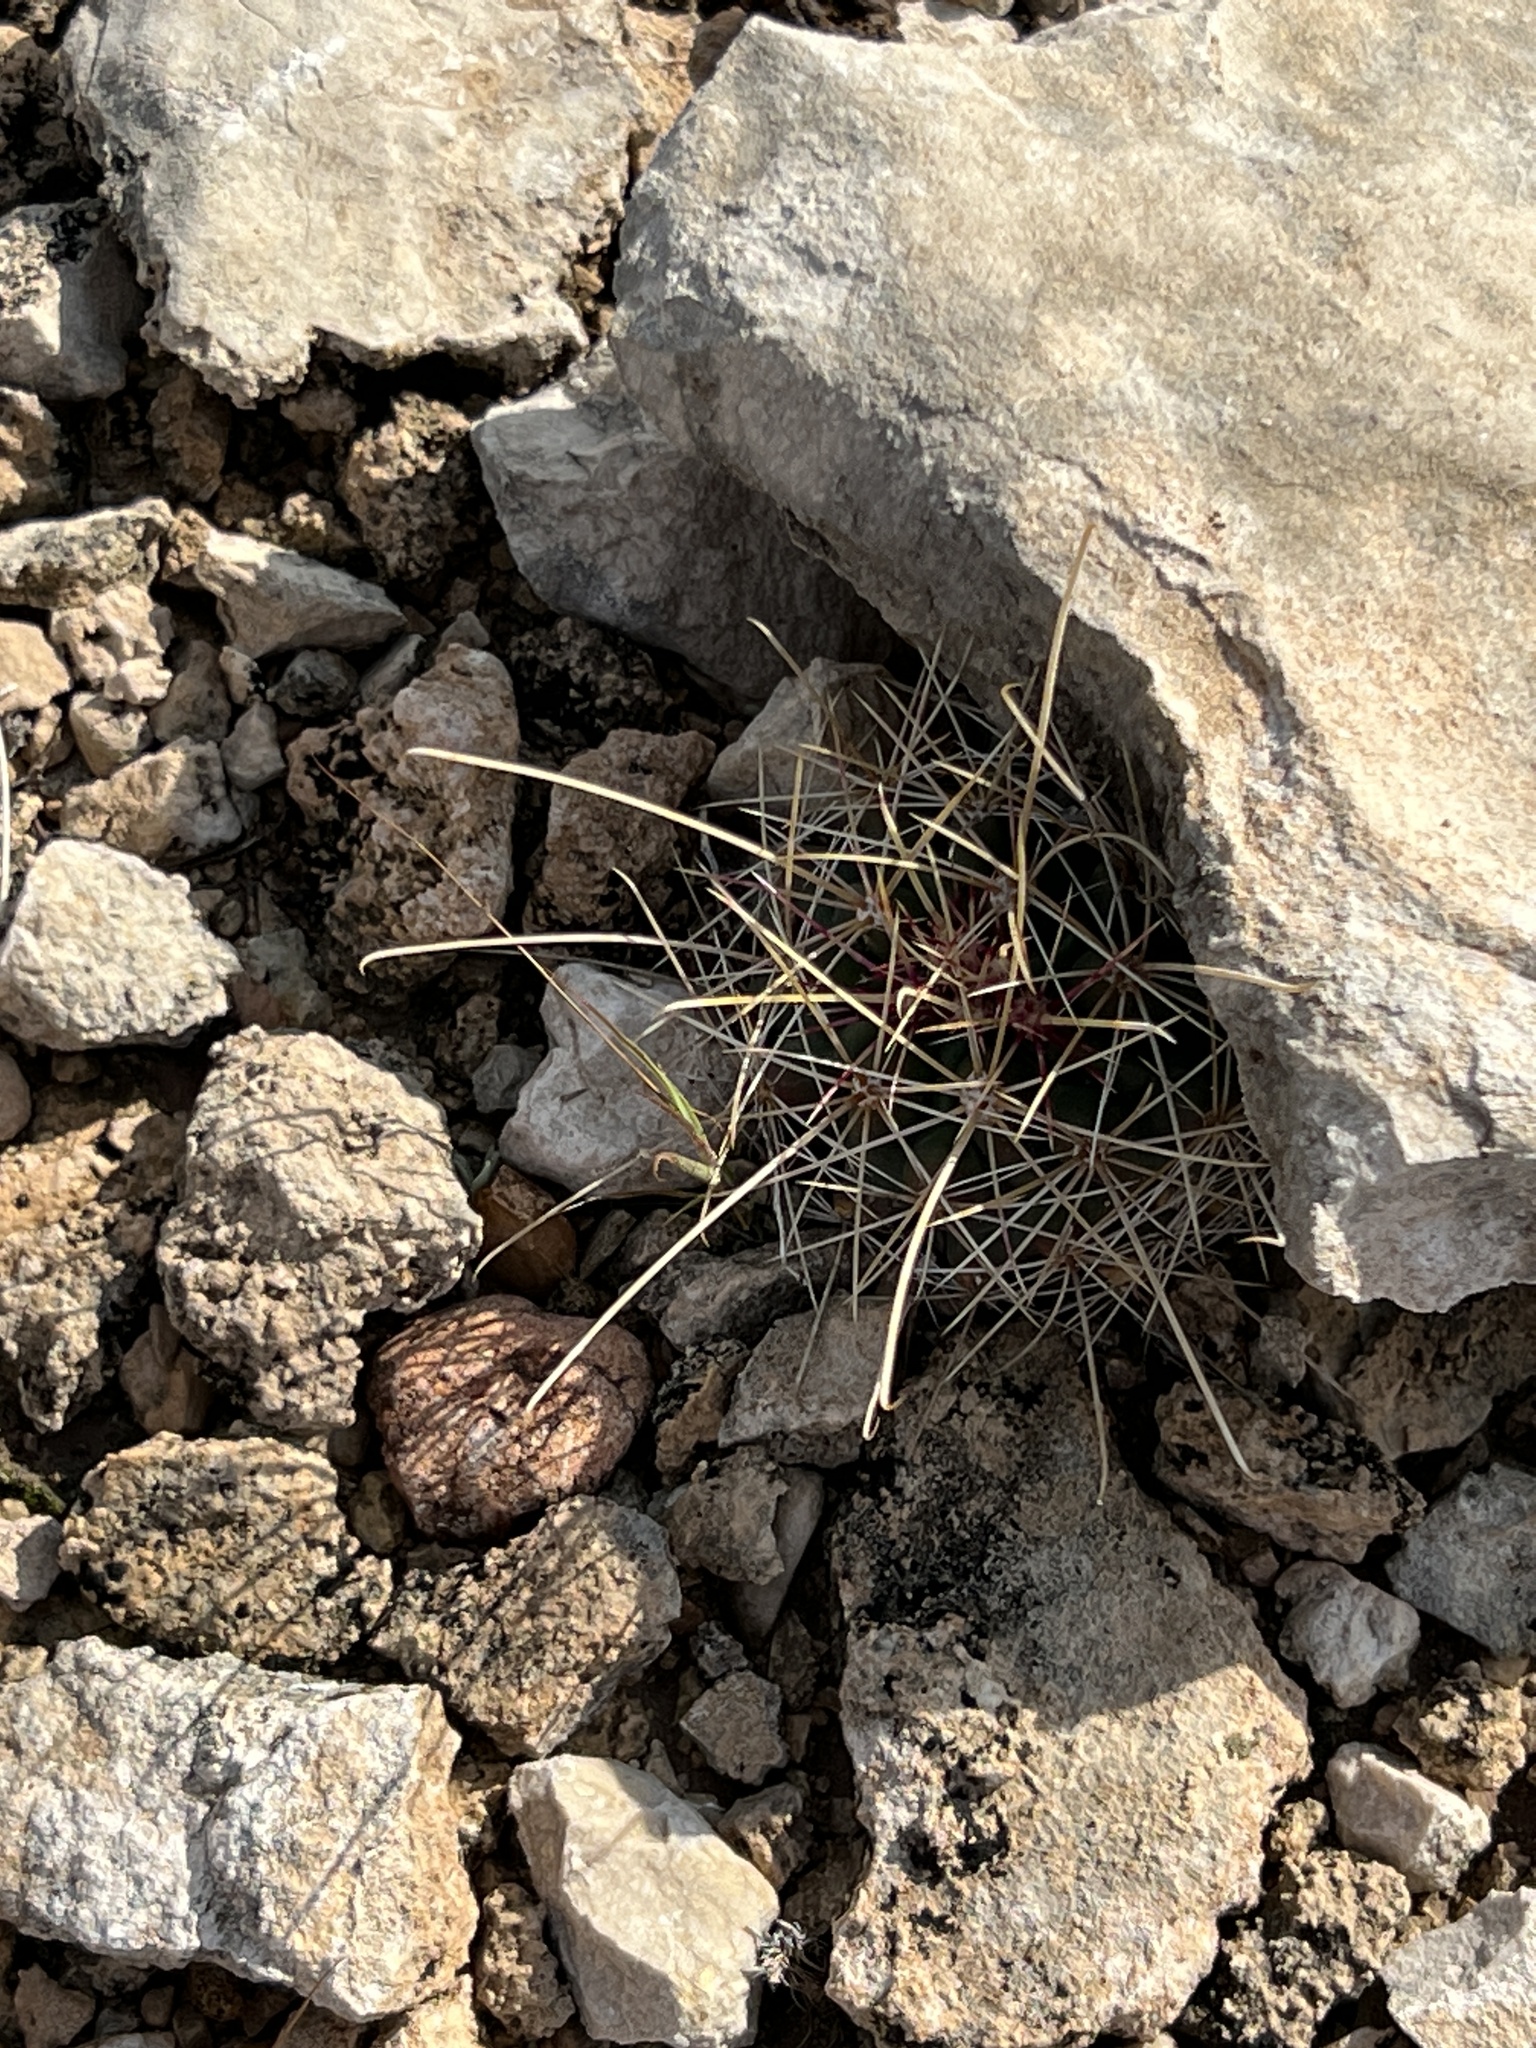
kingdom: Plantae
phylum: Tracheophyta
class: Magnoliopsida
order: Caryophyllales
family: Cactaceae
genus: Bisnaga
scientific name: Bisnaga hamatacantha
